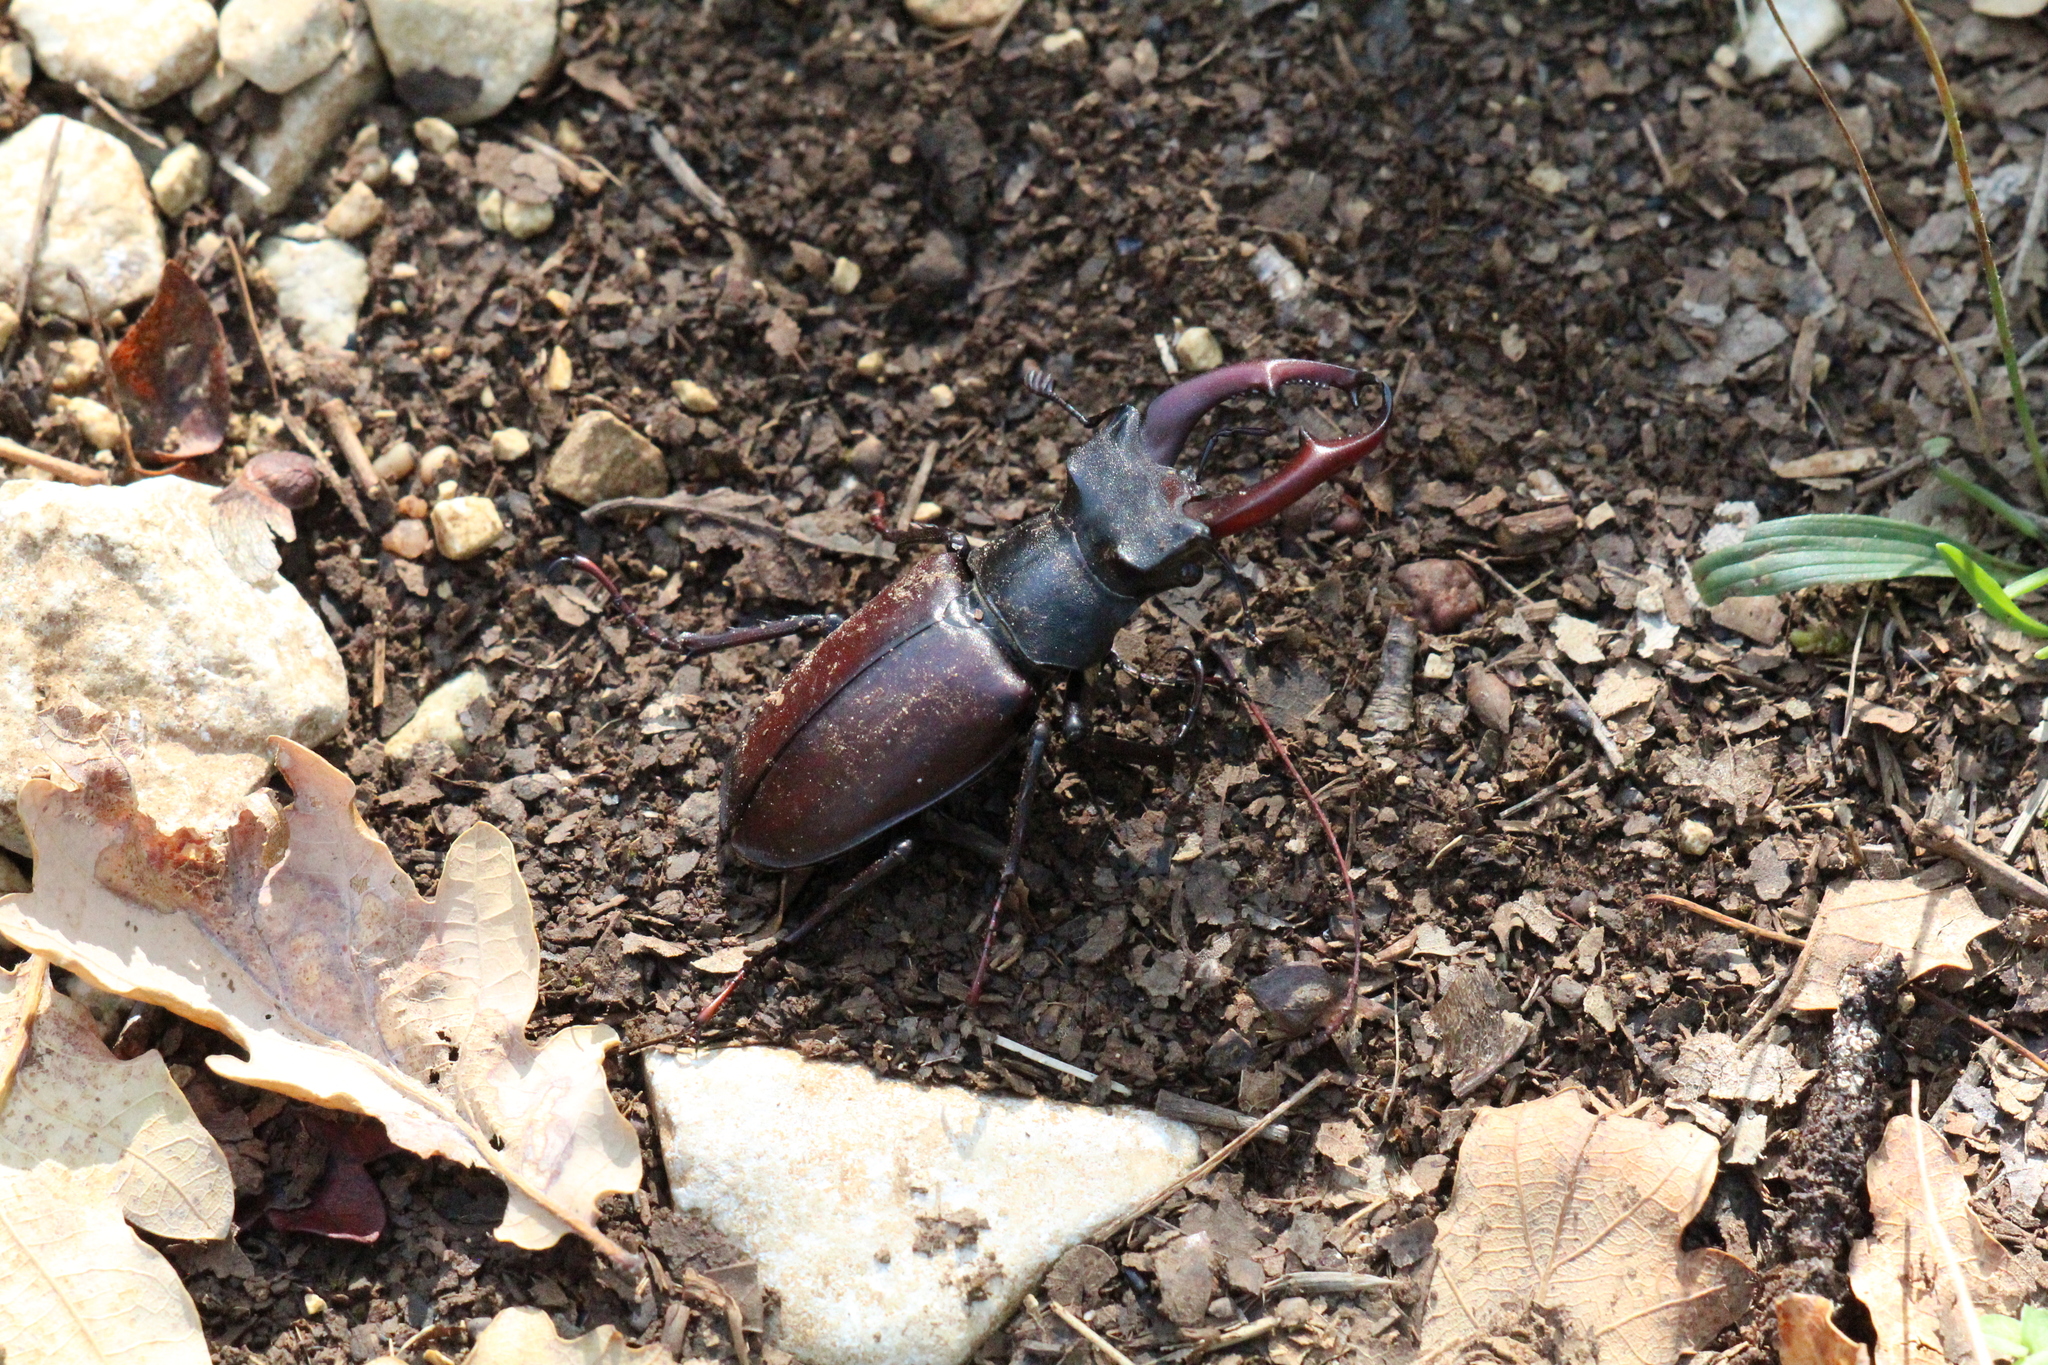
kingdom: Animalia
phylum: Arthropoda
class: Insecta
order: Coleoptera
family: Lucanidae
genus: Lucanus
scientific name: Lucanus cervus
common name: Stag beetle
